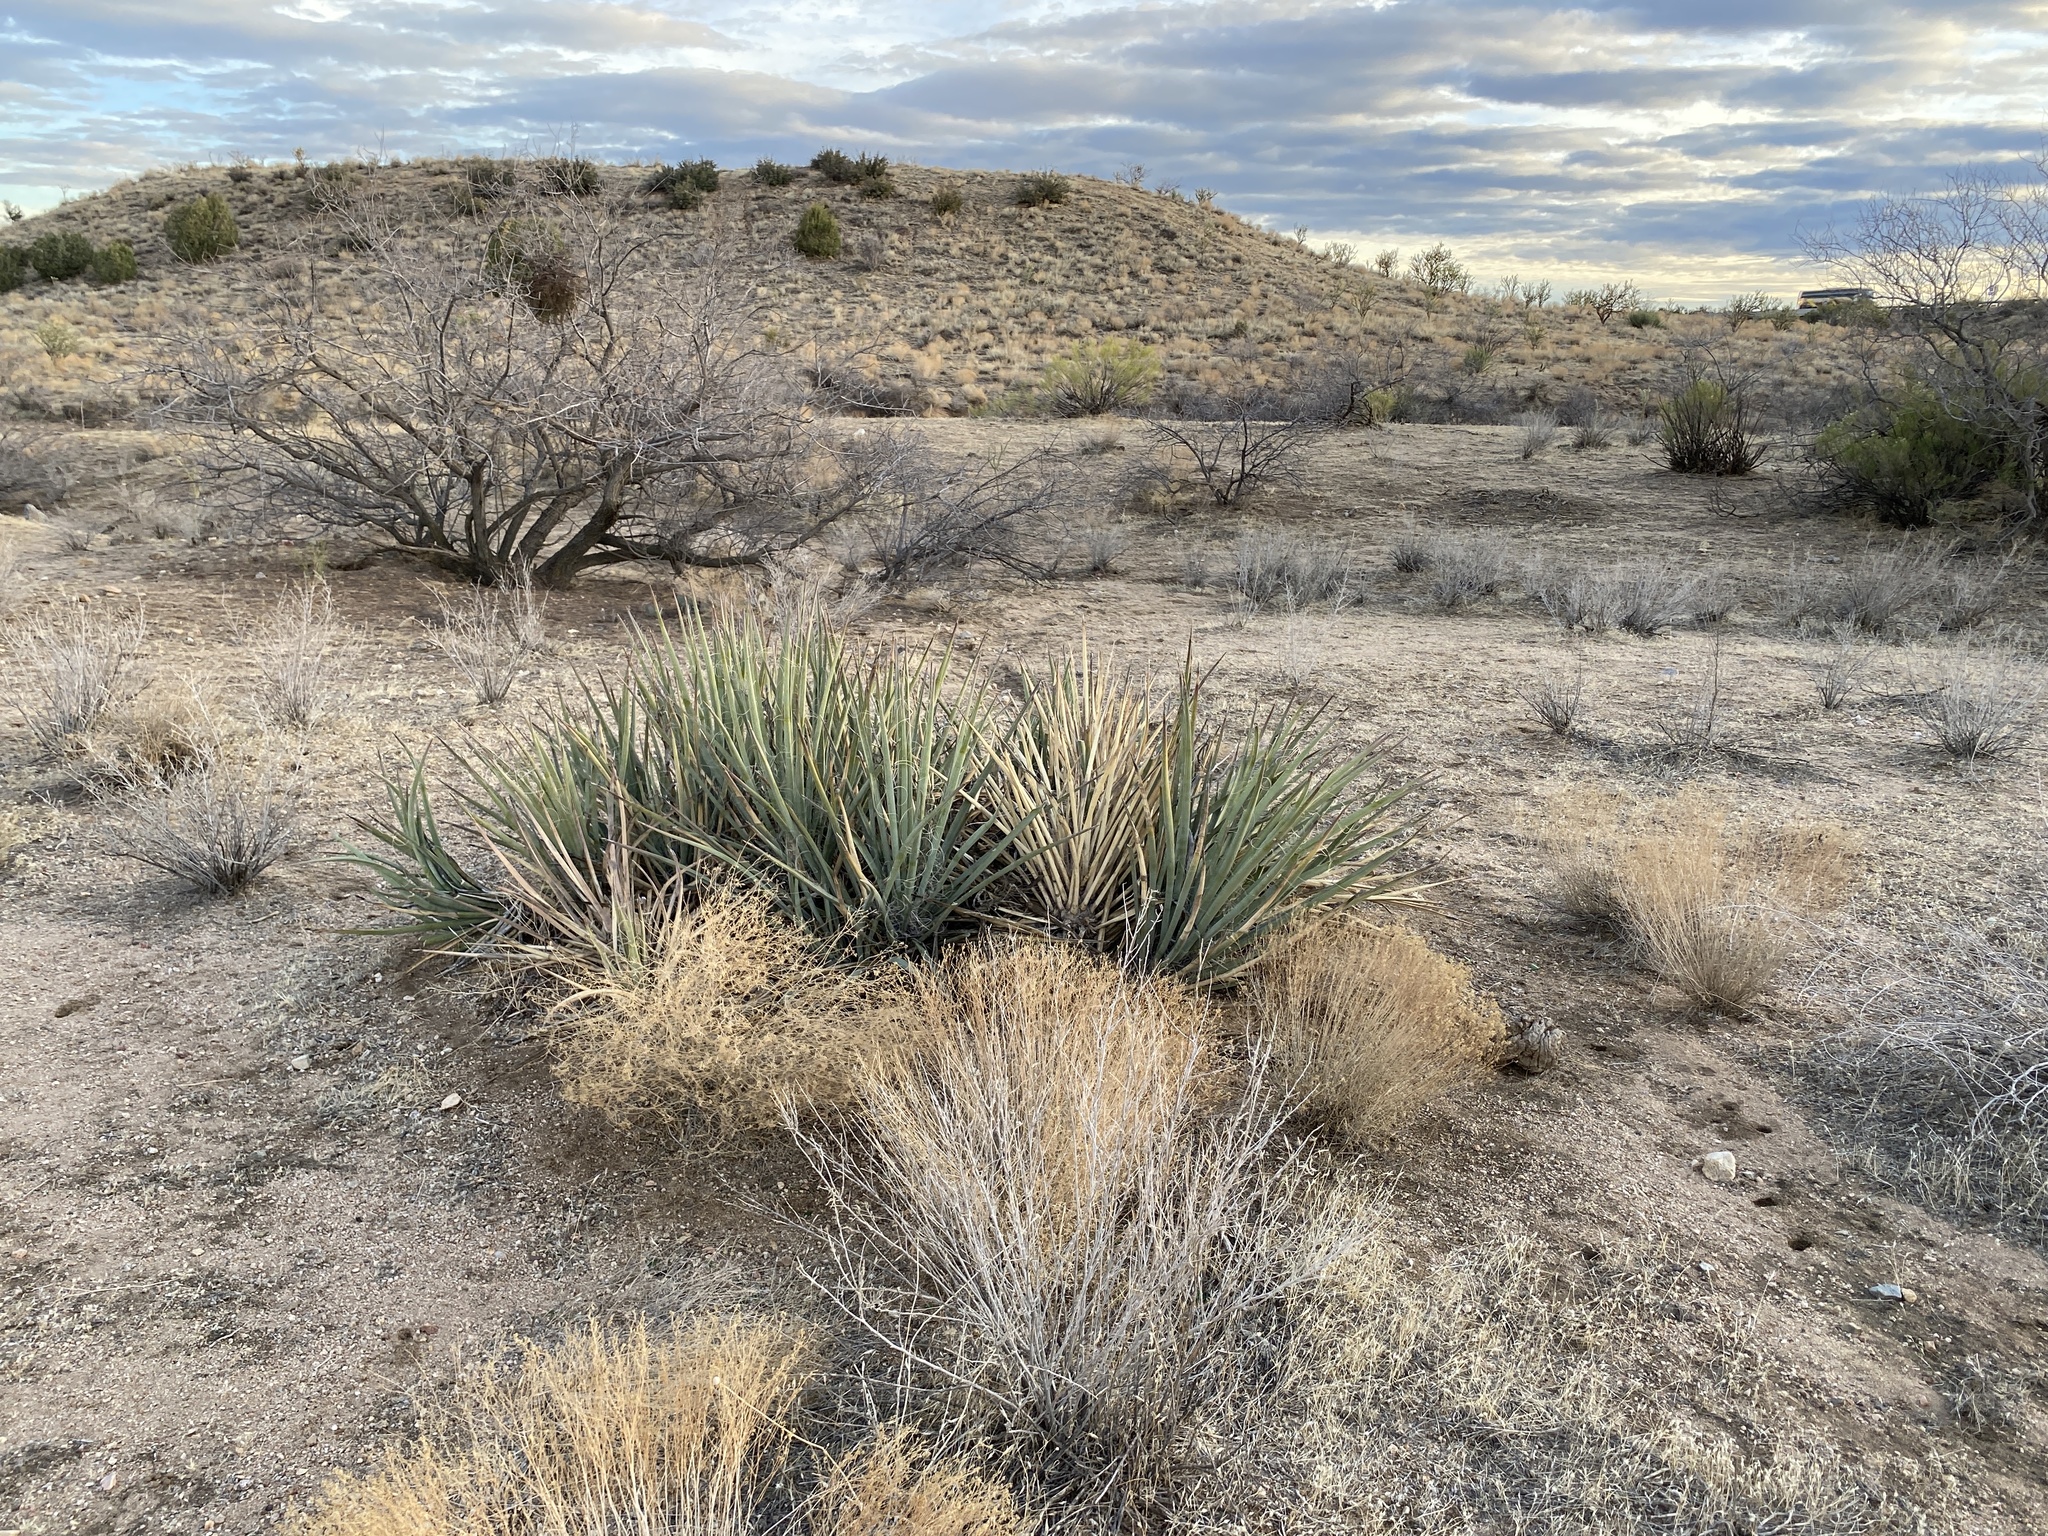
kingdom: Plantae
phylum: Tracheophyta
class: Liliopsida
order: Asparagales
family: Asparagaceae
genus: Yucca
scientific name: Yucca baccata
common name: Banana yucca
